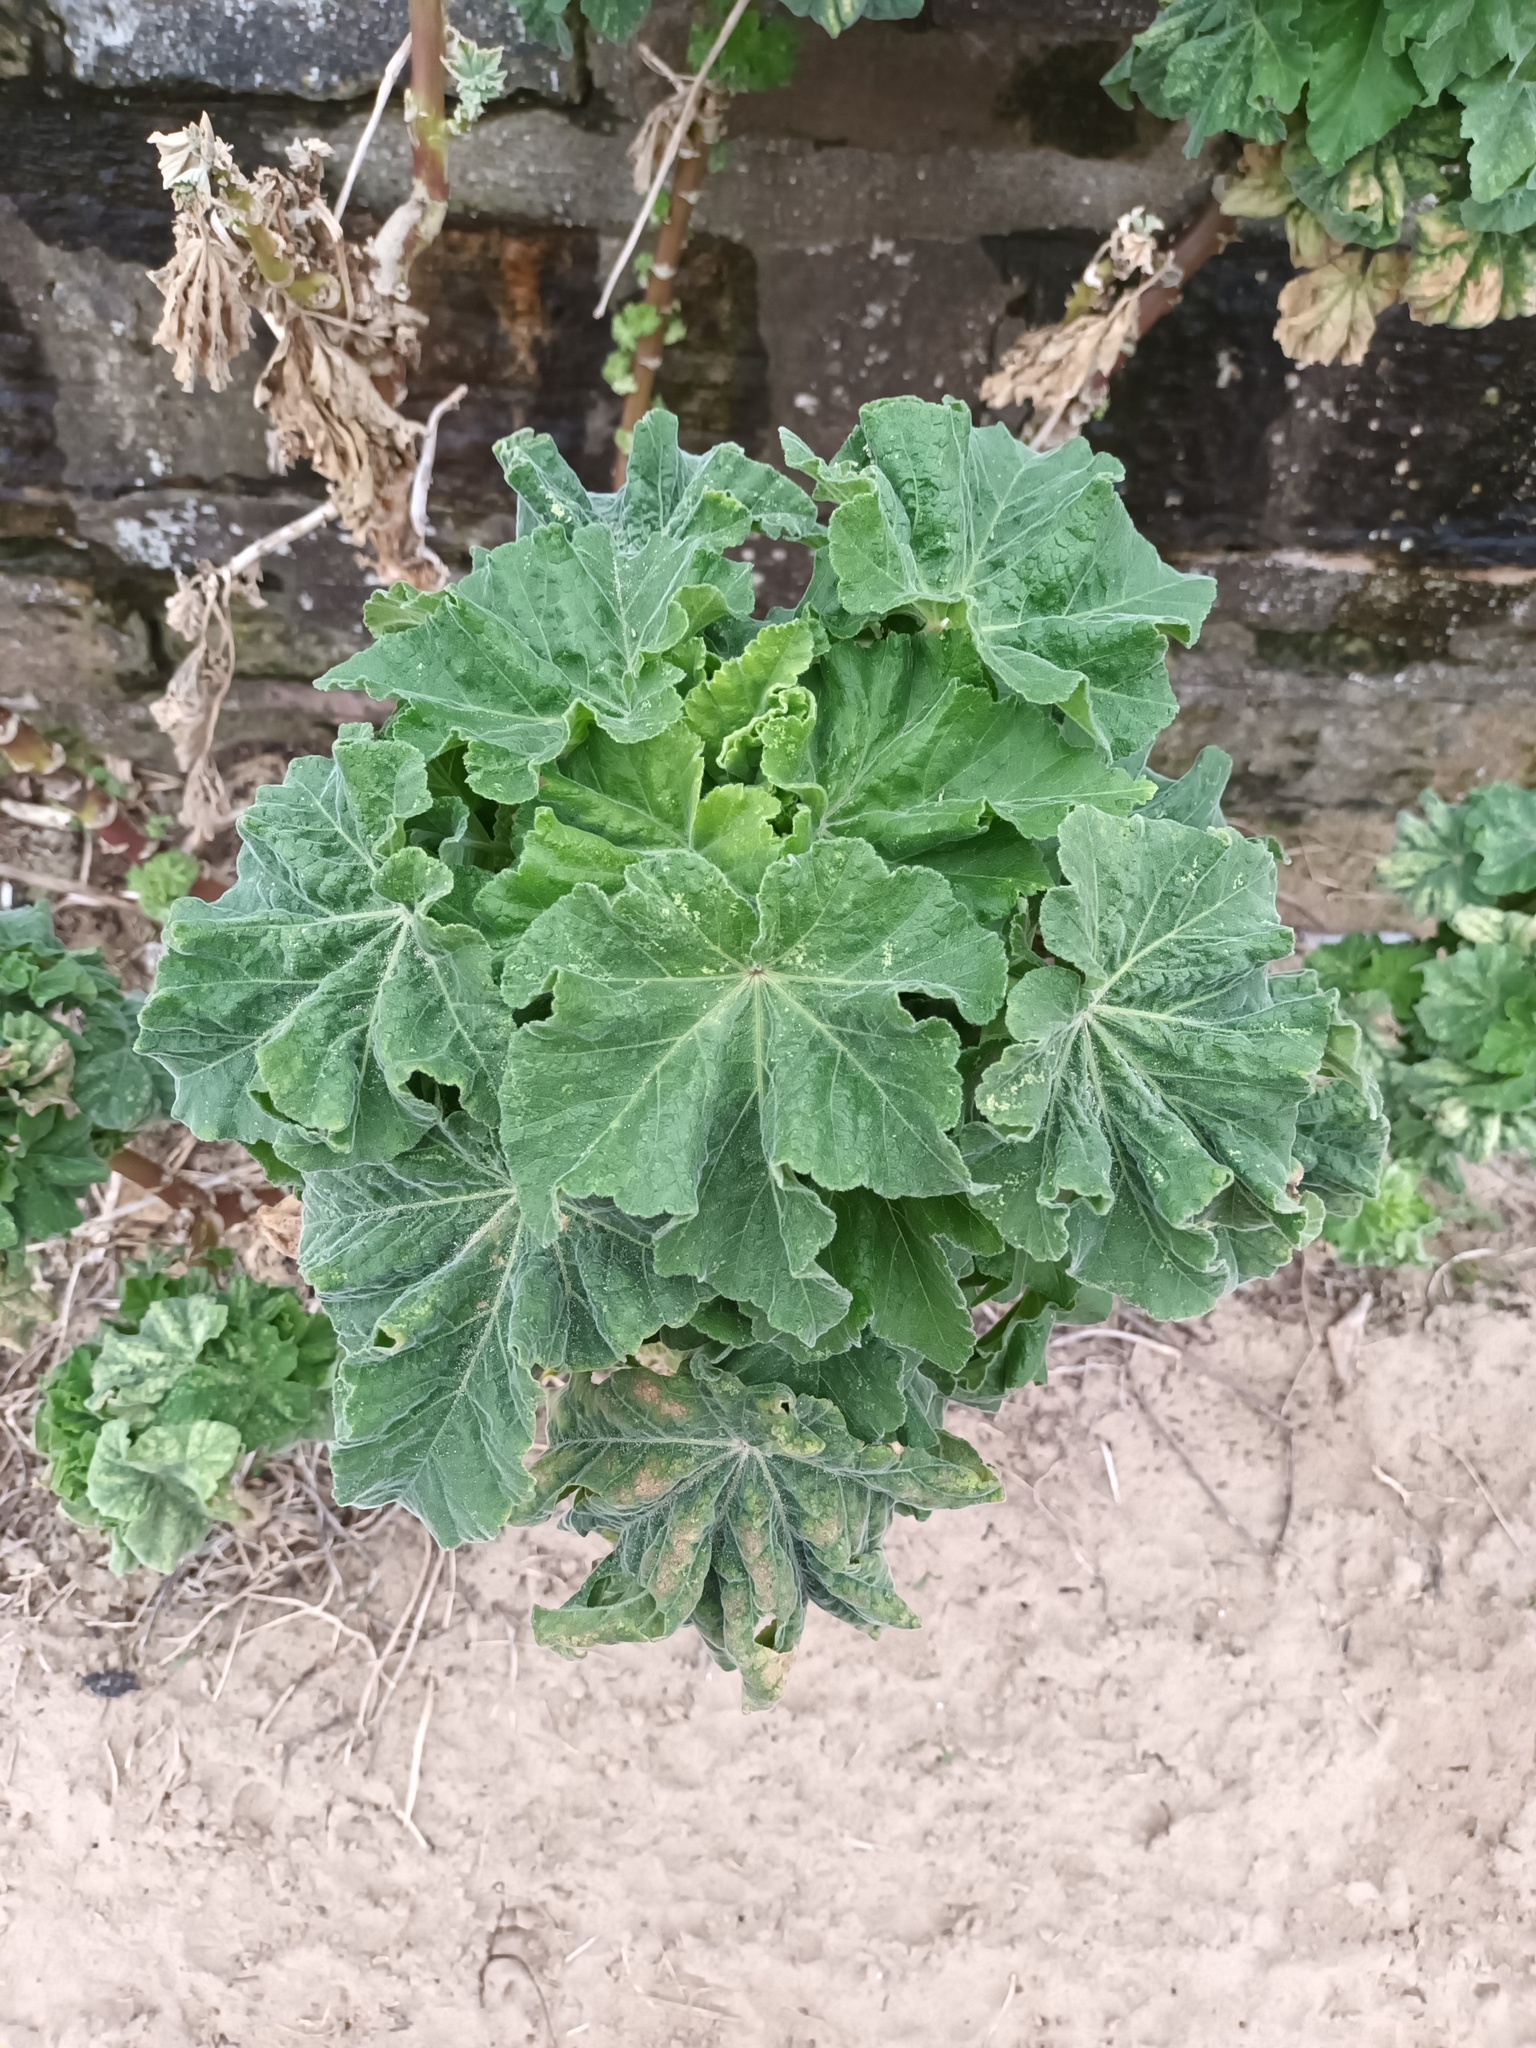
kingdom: Plantae
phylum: Tracheophyta
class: Magnoliopsida
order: Malvales
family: Malvaceae
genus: Malva
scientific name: Malva arborea
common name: Tree mallow
